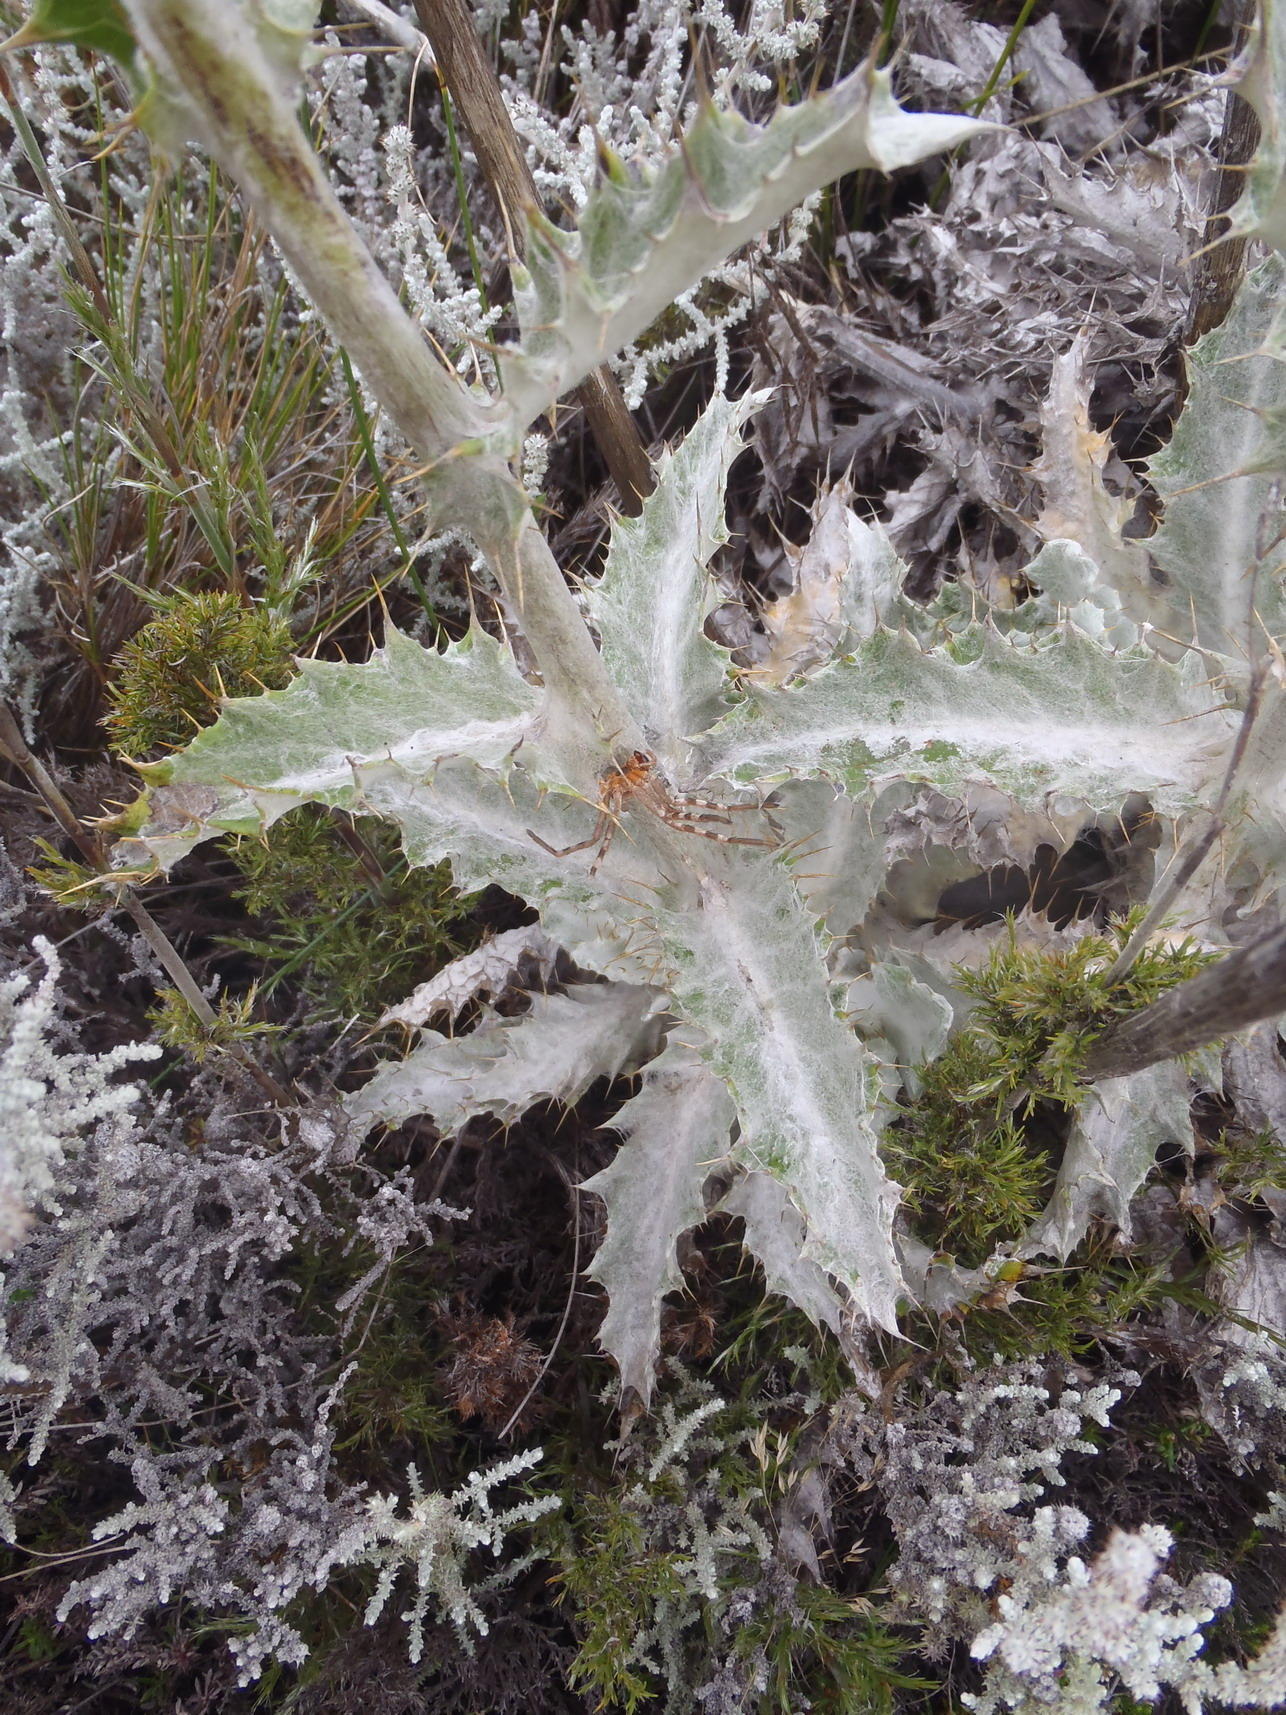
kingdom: Plantae
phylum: Tracheophyta
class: Magnoliopsida
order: Asterales
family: Asteraceae
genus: Berkheya
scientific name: Berkheya francisci
